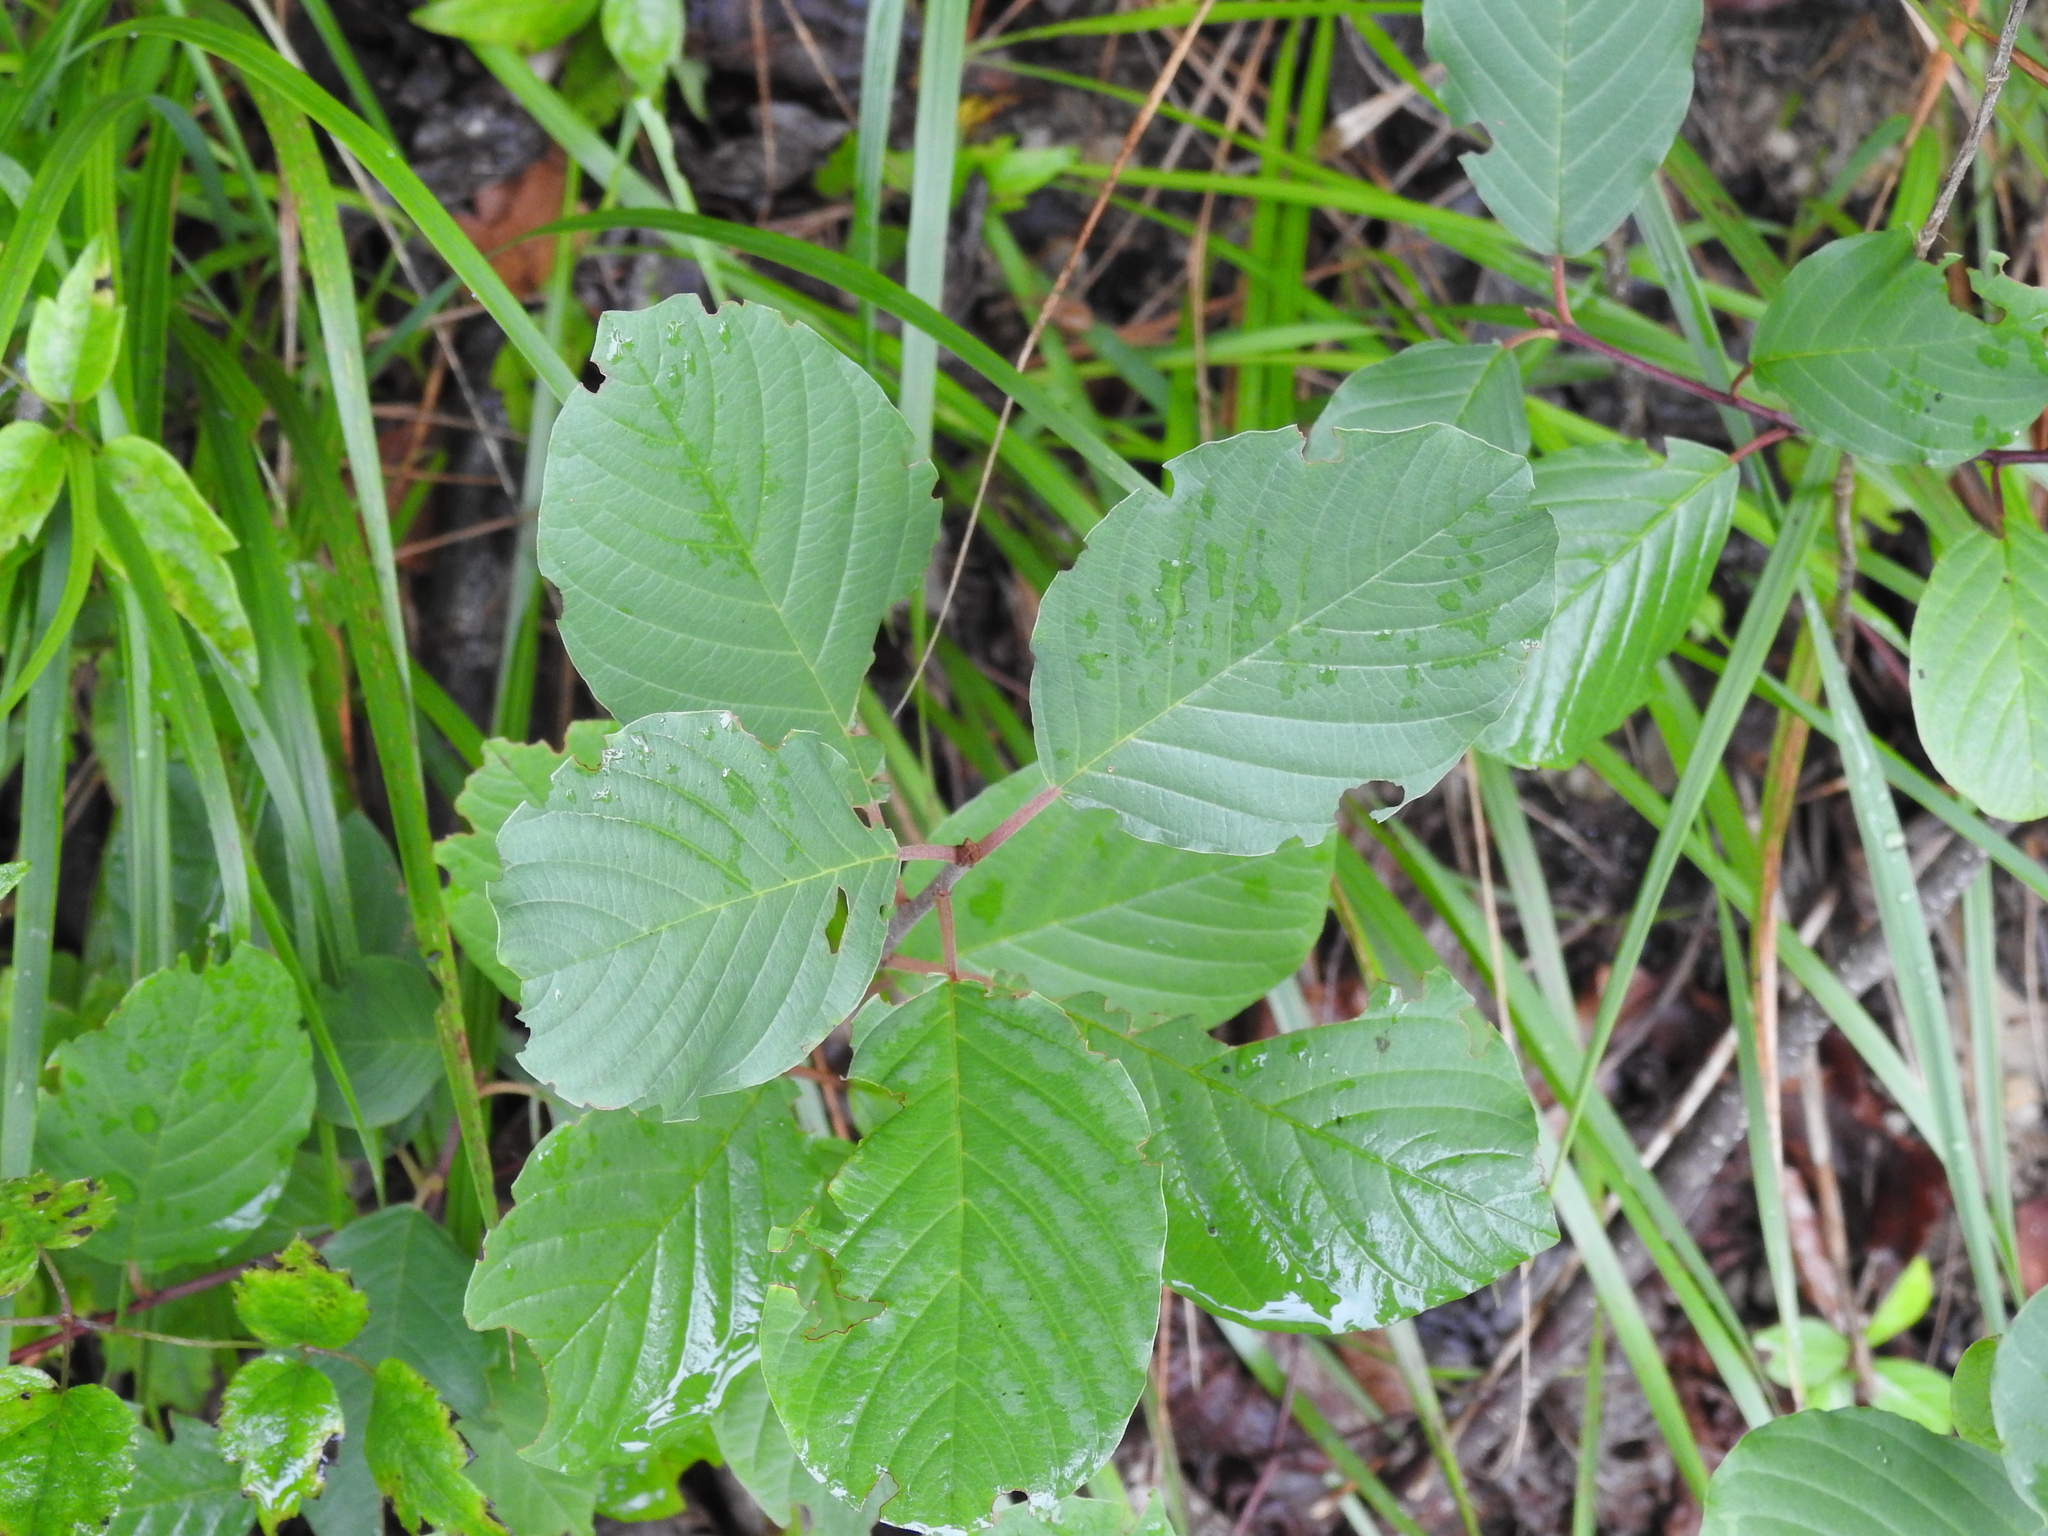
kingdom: Plantae
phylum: Tracheophyta
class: Magnoliopsida
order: Rosales
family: Rhamnaceae
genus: Frangula
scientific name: Frangula alnus
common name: Alder buckthorn
